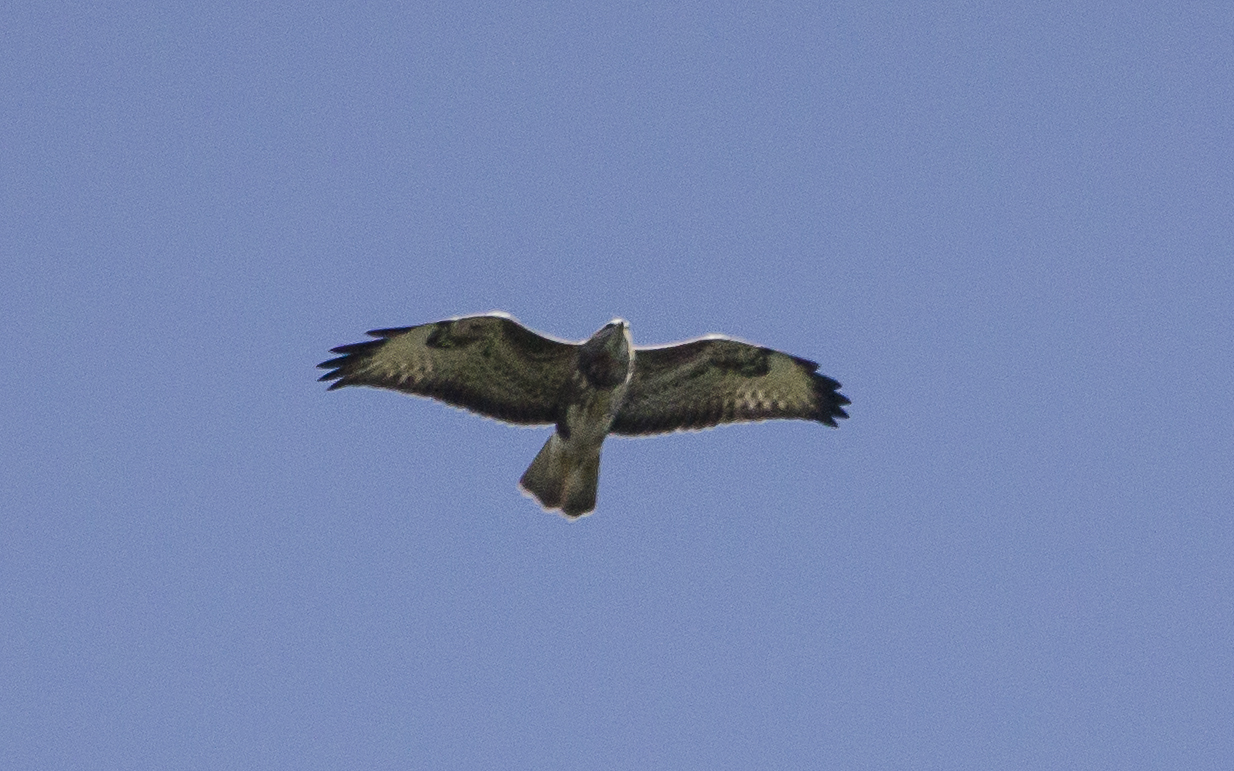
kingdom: Animalia
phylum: Chordata
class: Aves
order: Accipitriformes
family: Accipitridae
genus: Buteo
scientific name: Buteo buteo
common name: Common buzzard
